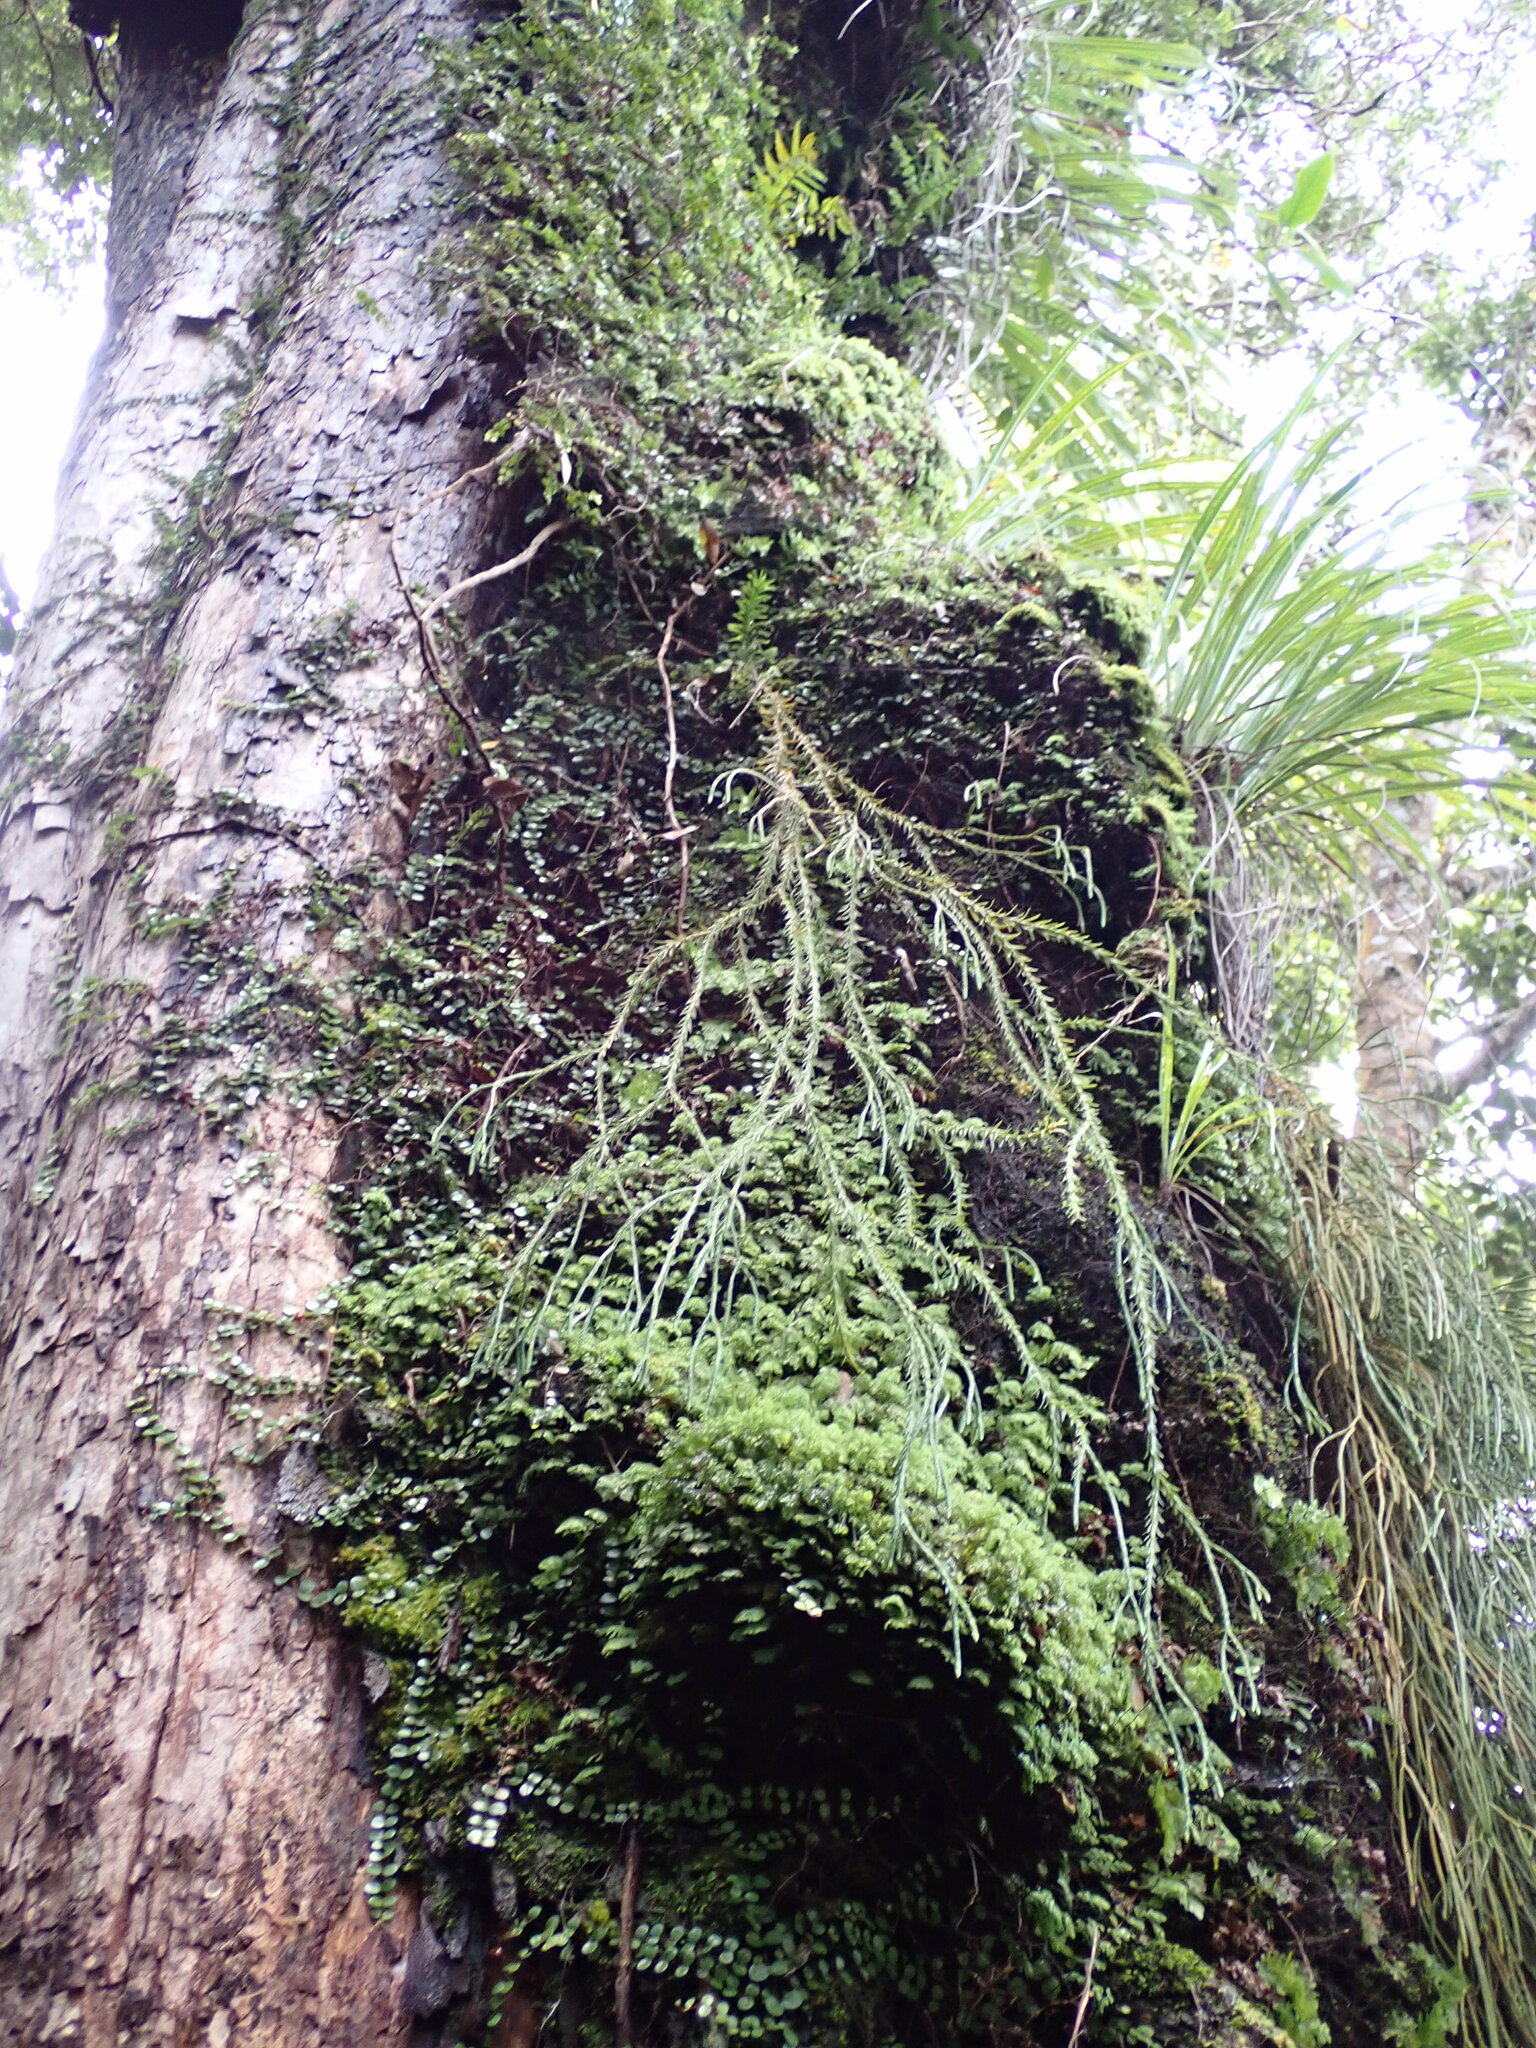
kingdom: Plantae
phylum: Tracheophyta
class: Lycopodiopsida
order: Lycopodiales
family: Lycopodiaceae
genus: Phlegmariurus
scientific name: Phlegmariurus billardierei
